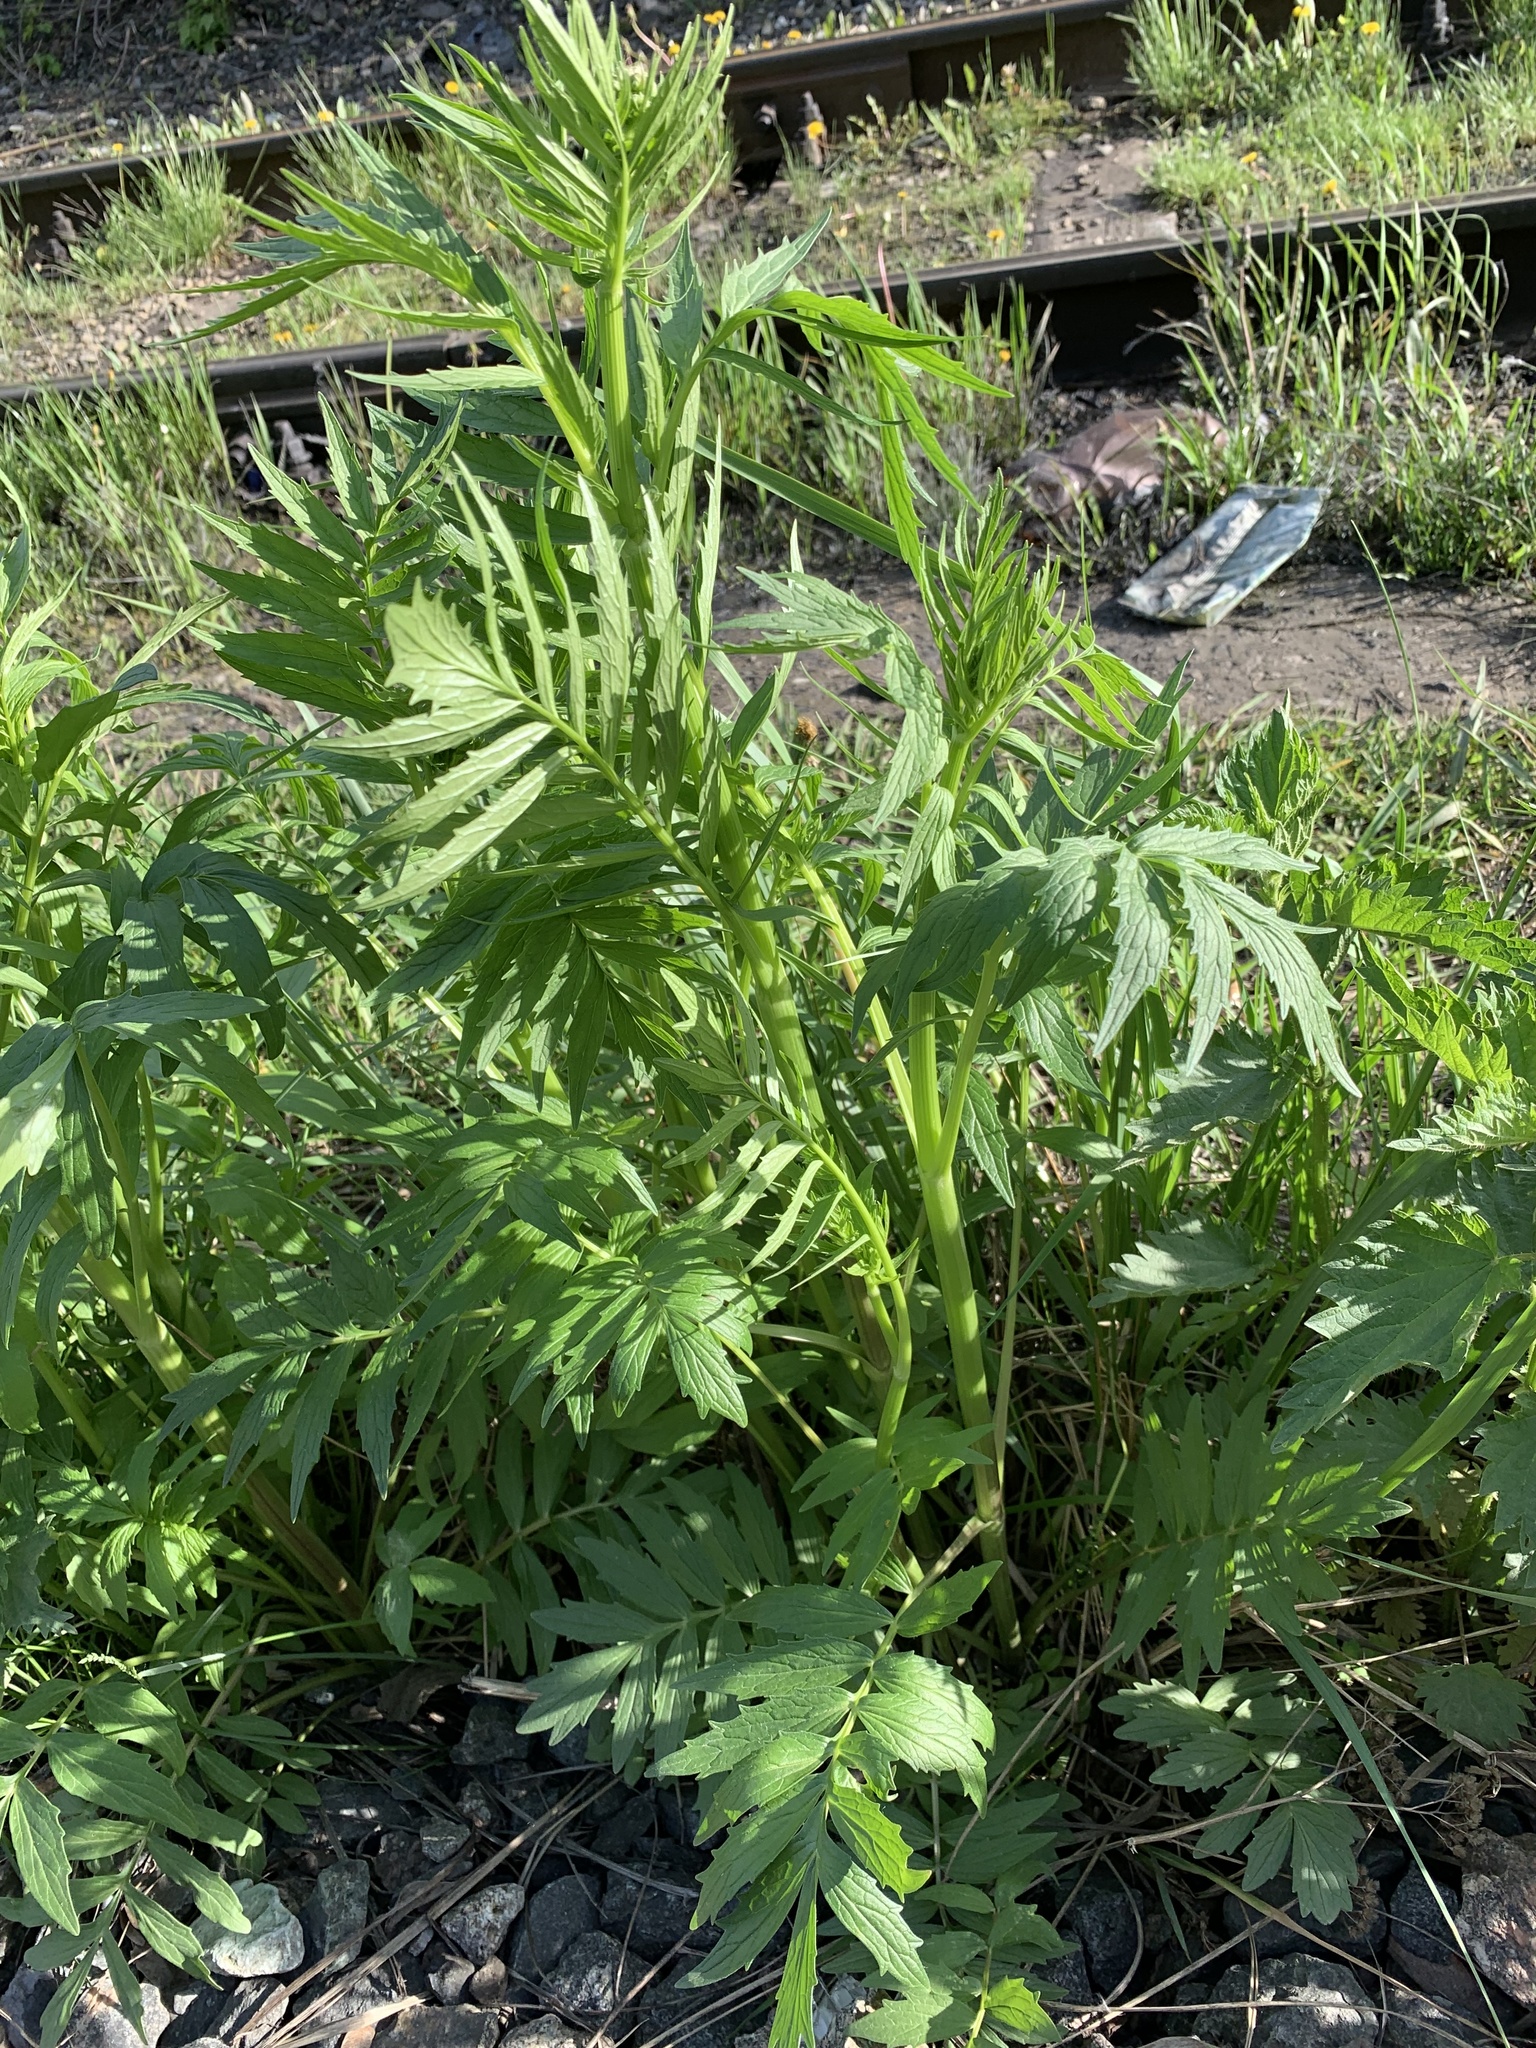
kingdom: Plantae
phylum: Tracheophyta
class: Magnoliopsida
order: Dipsacales
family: Caprifoliaceae
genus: Valeriana
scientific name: Valeriana wolgensis
